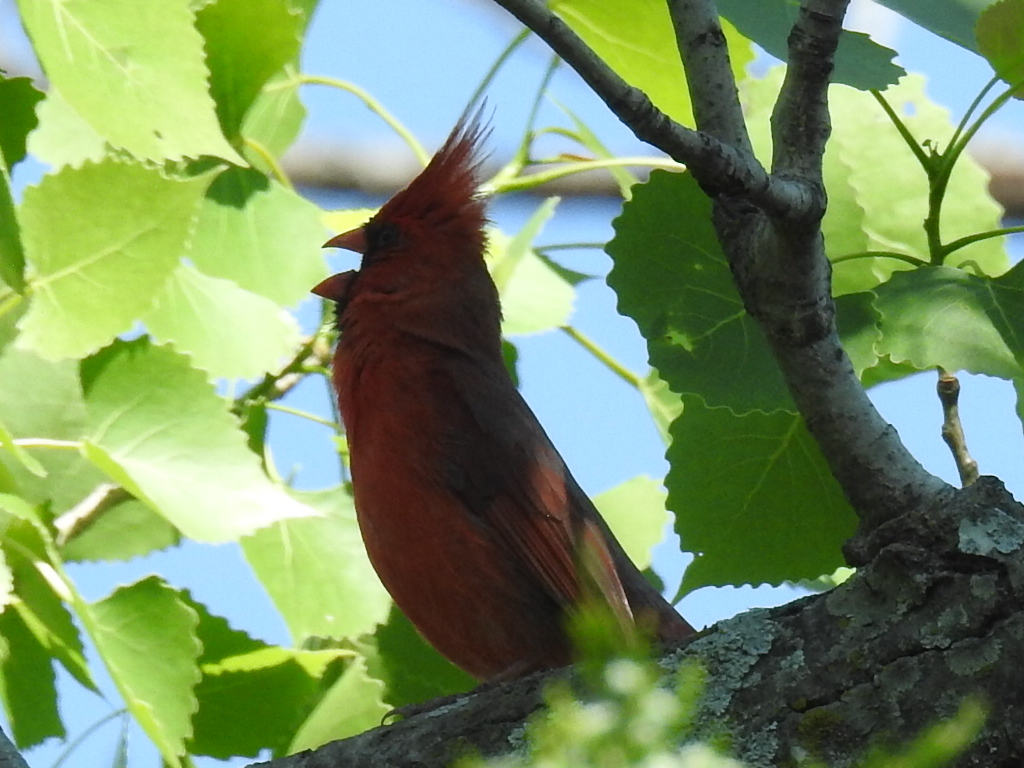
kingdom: Animalia
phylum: Chordata
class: Aves
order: Passeriformes
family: Cardinalidae
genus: Cardinalis
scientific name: Cardinalis cardinalis
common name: Northern cardinal
